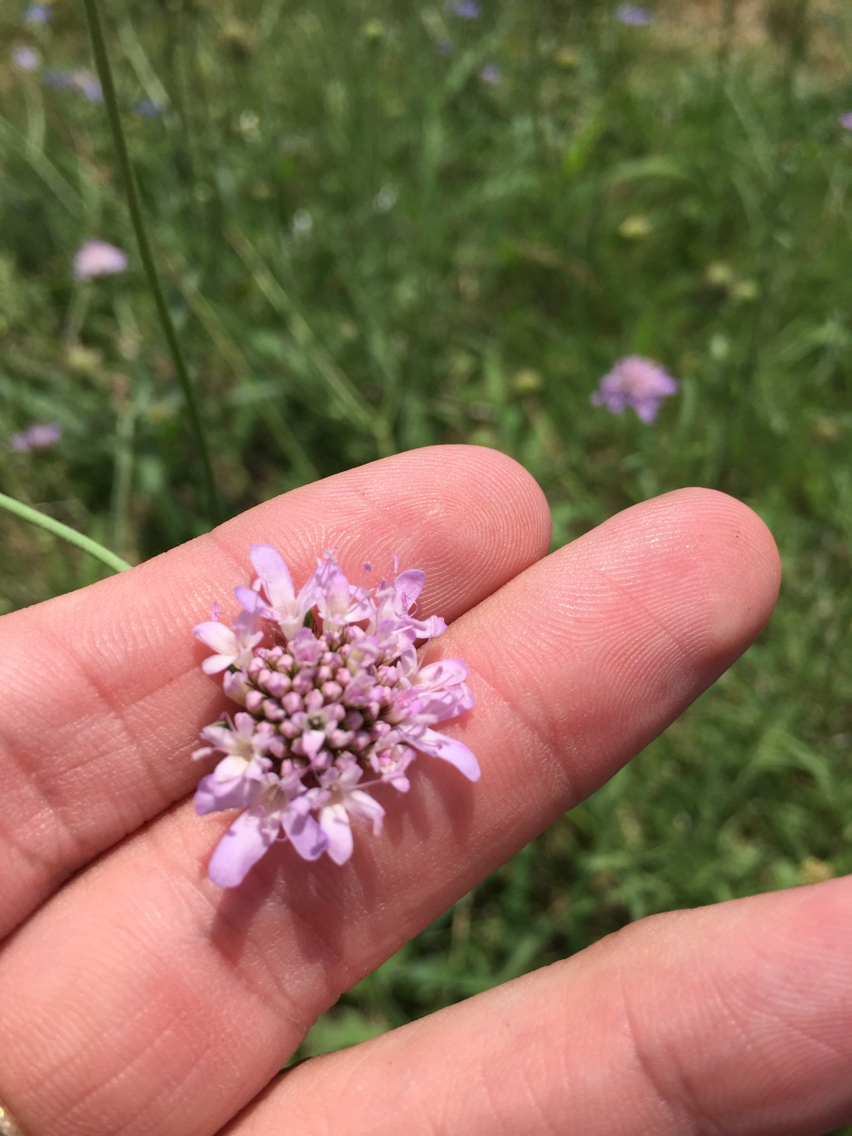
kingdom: Plantae
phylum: Tracheophyta
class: Magnoliopsida
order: Dipsacales
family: Caprifoliaceae
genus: Sixalix
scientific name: Sixalix atropurpurea
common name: Sweet scabious
